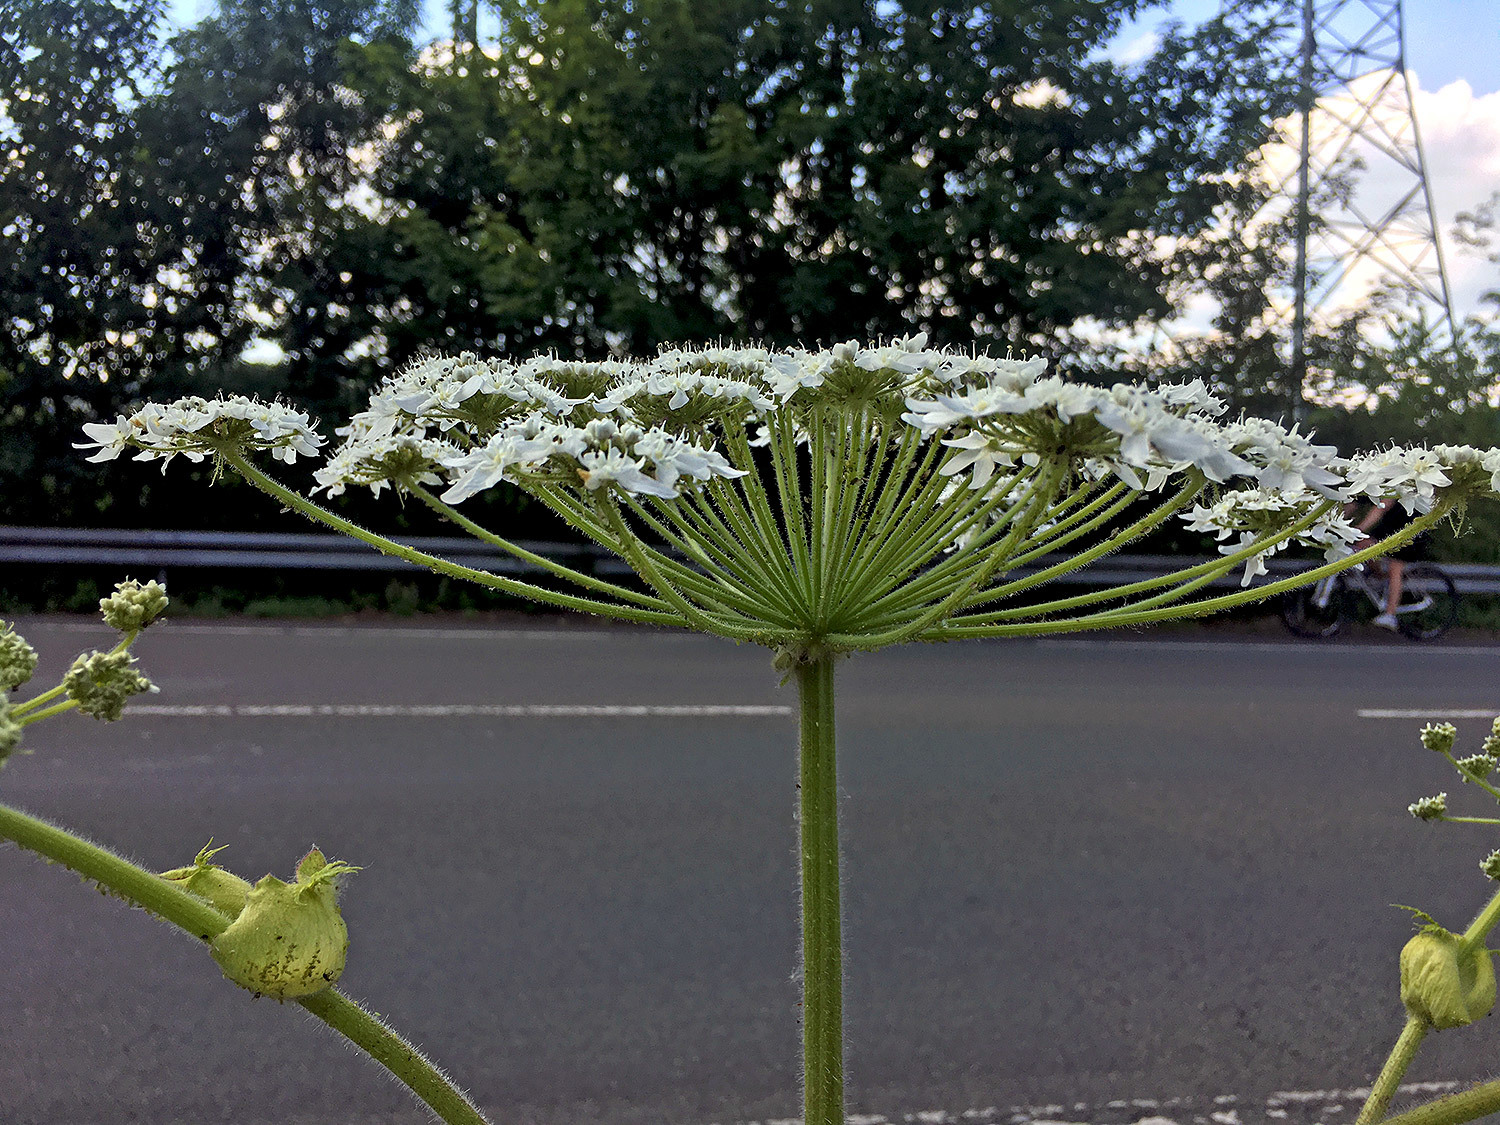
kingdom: Plantae
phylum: Tracheophyta
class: Magnoliopsida
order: Apiales
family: Apiaceae
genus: Heracleum
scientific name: Heracleum sphondylium
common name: Hogweed
